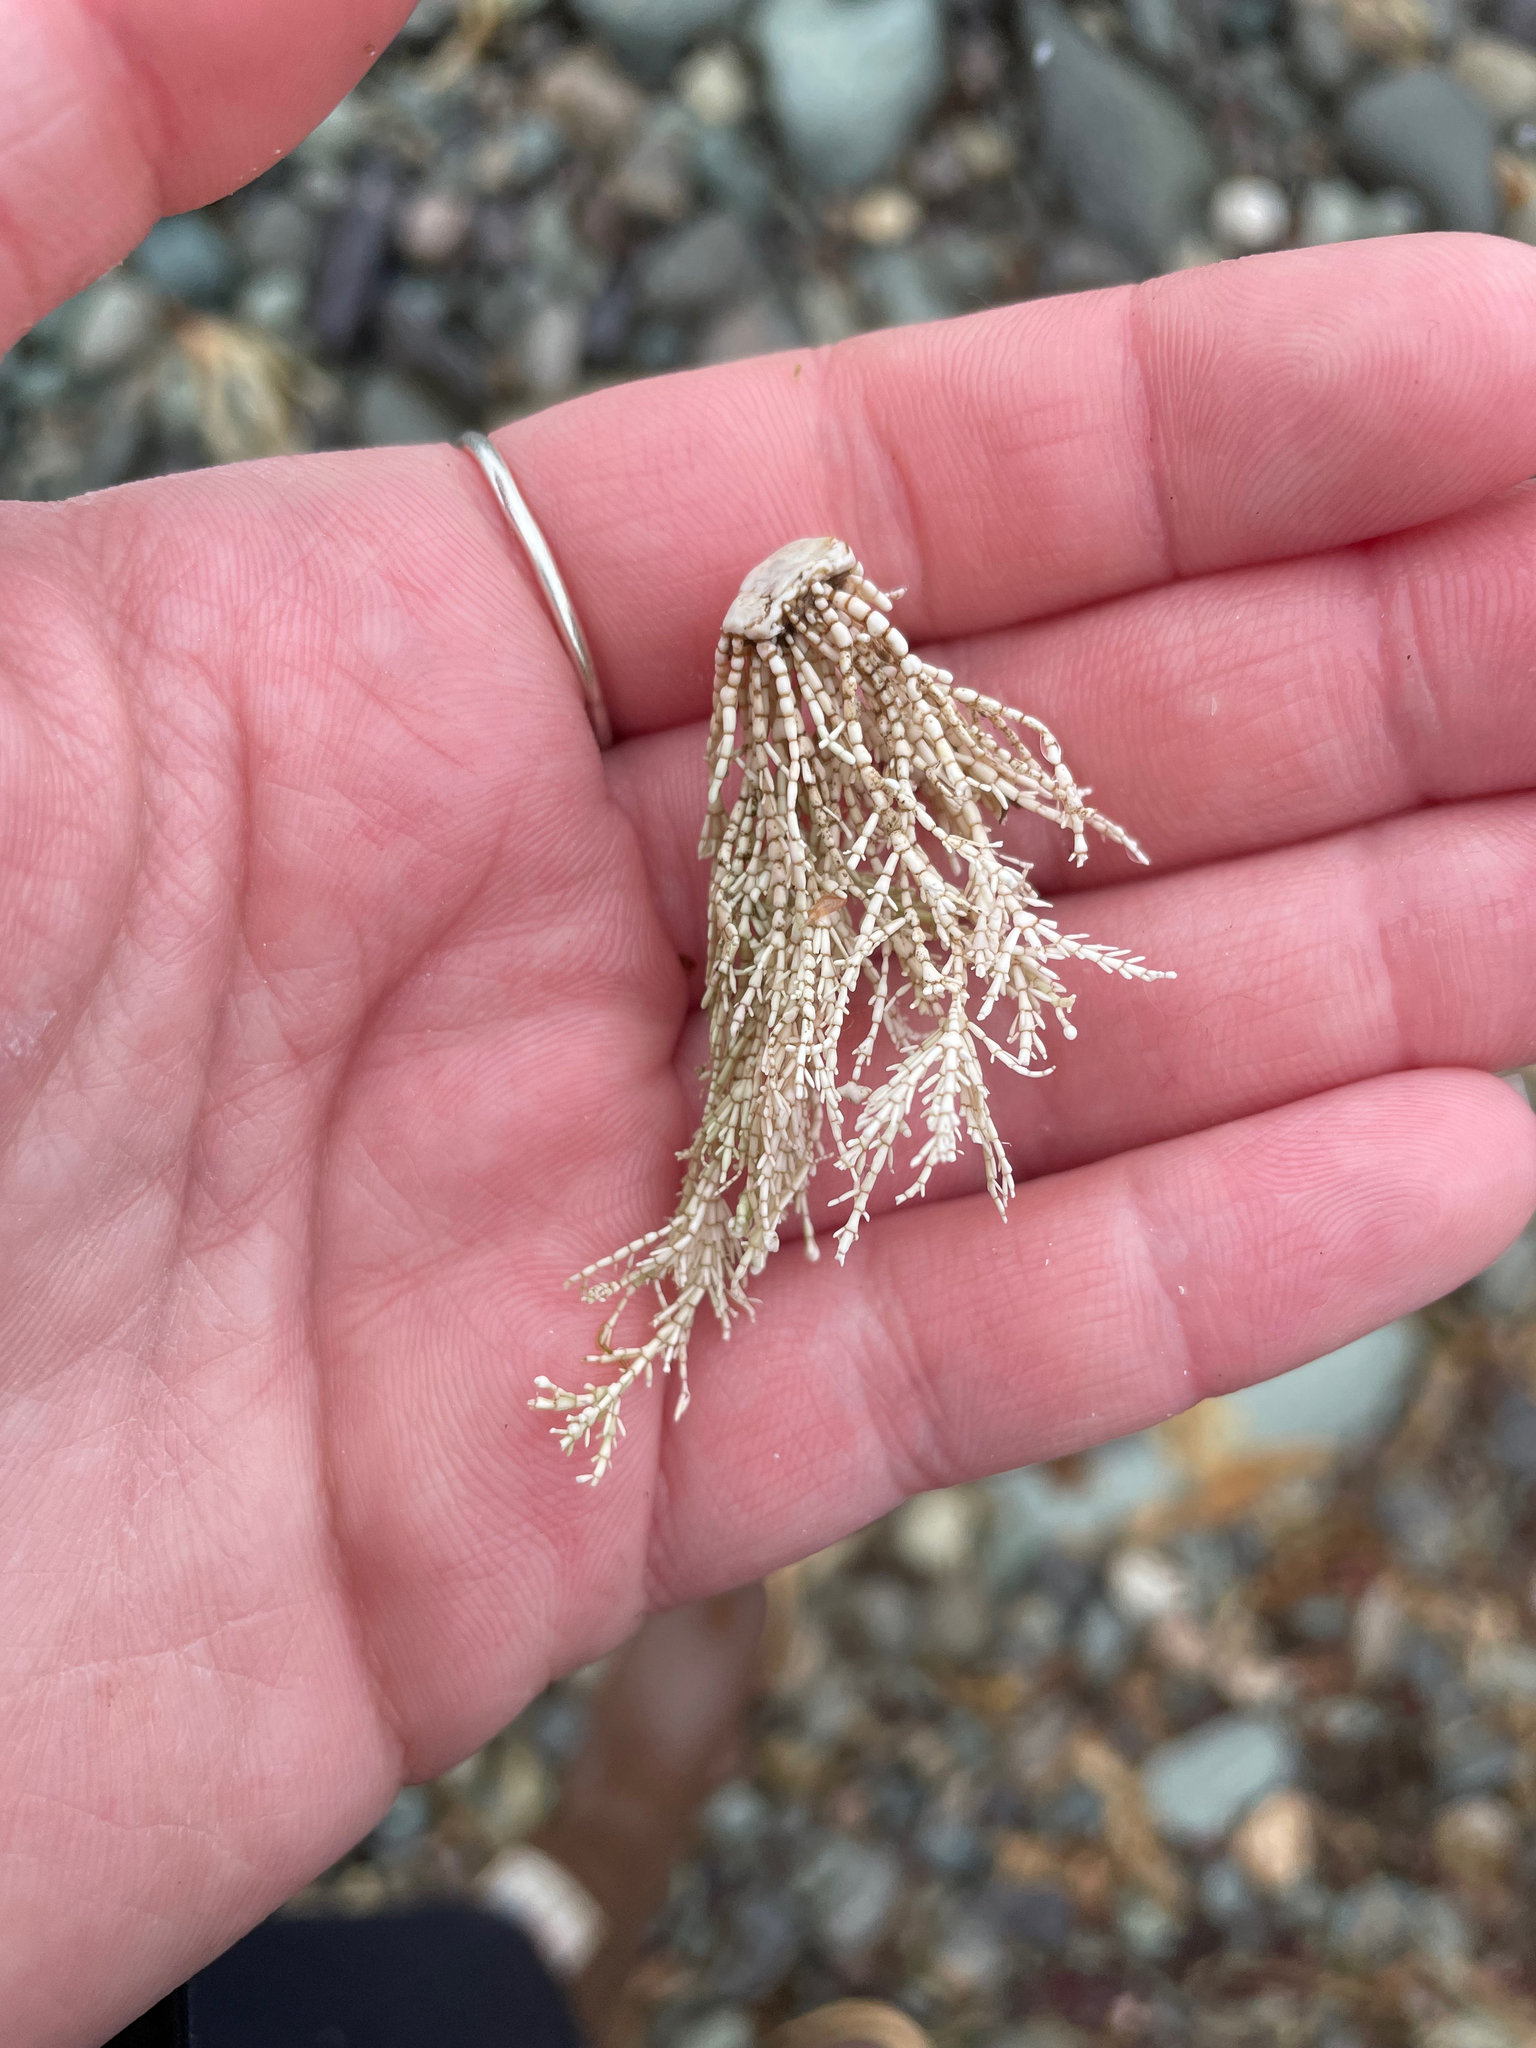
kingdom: Plantae
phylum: Rhodophyta
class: Florideophyceae
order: Corallinales
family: Corallinaceae
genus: Corallina
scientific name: Corallina officinalis
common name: Coral weed
